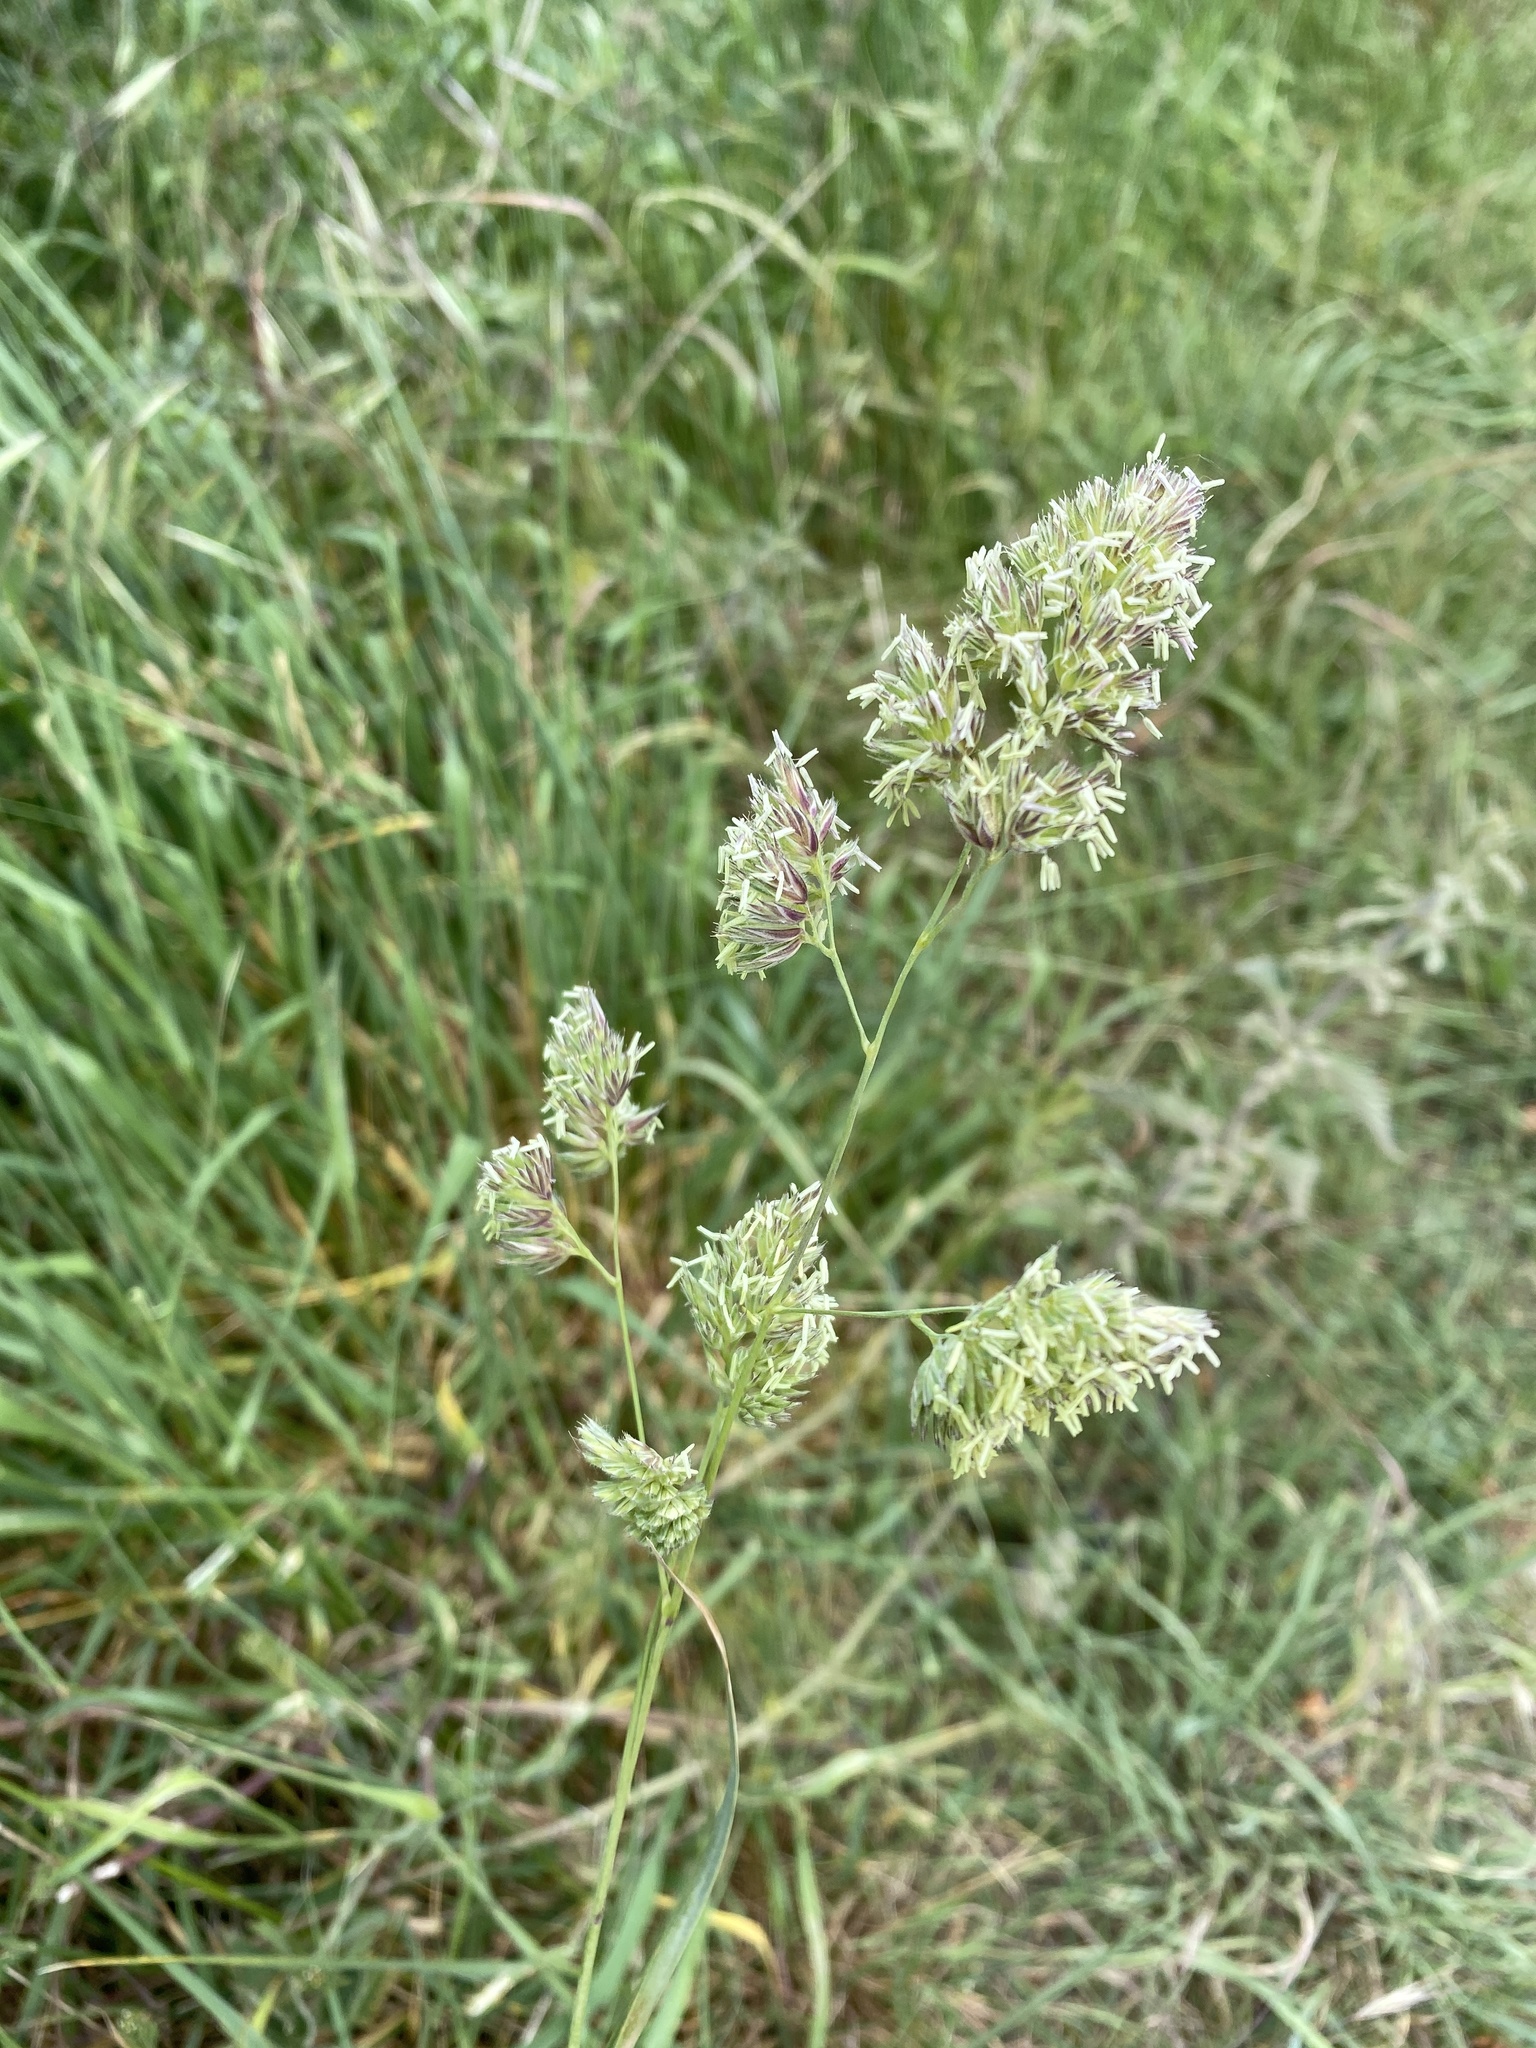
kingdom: Plantae
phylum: Tracheophyta
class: Liliopsida
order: Poales
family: Poaceae
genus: Dactylis
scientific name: Dactylis glomerata
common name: Orchardgrass
